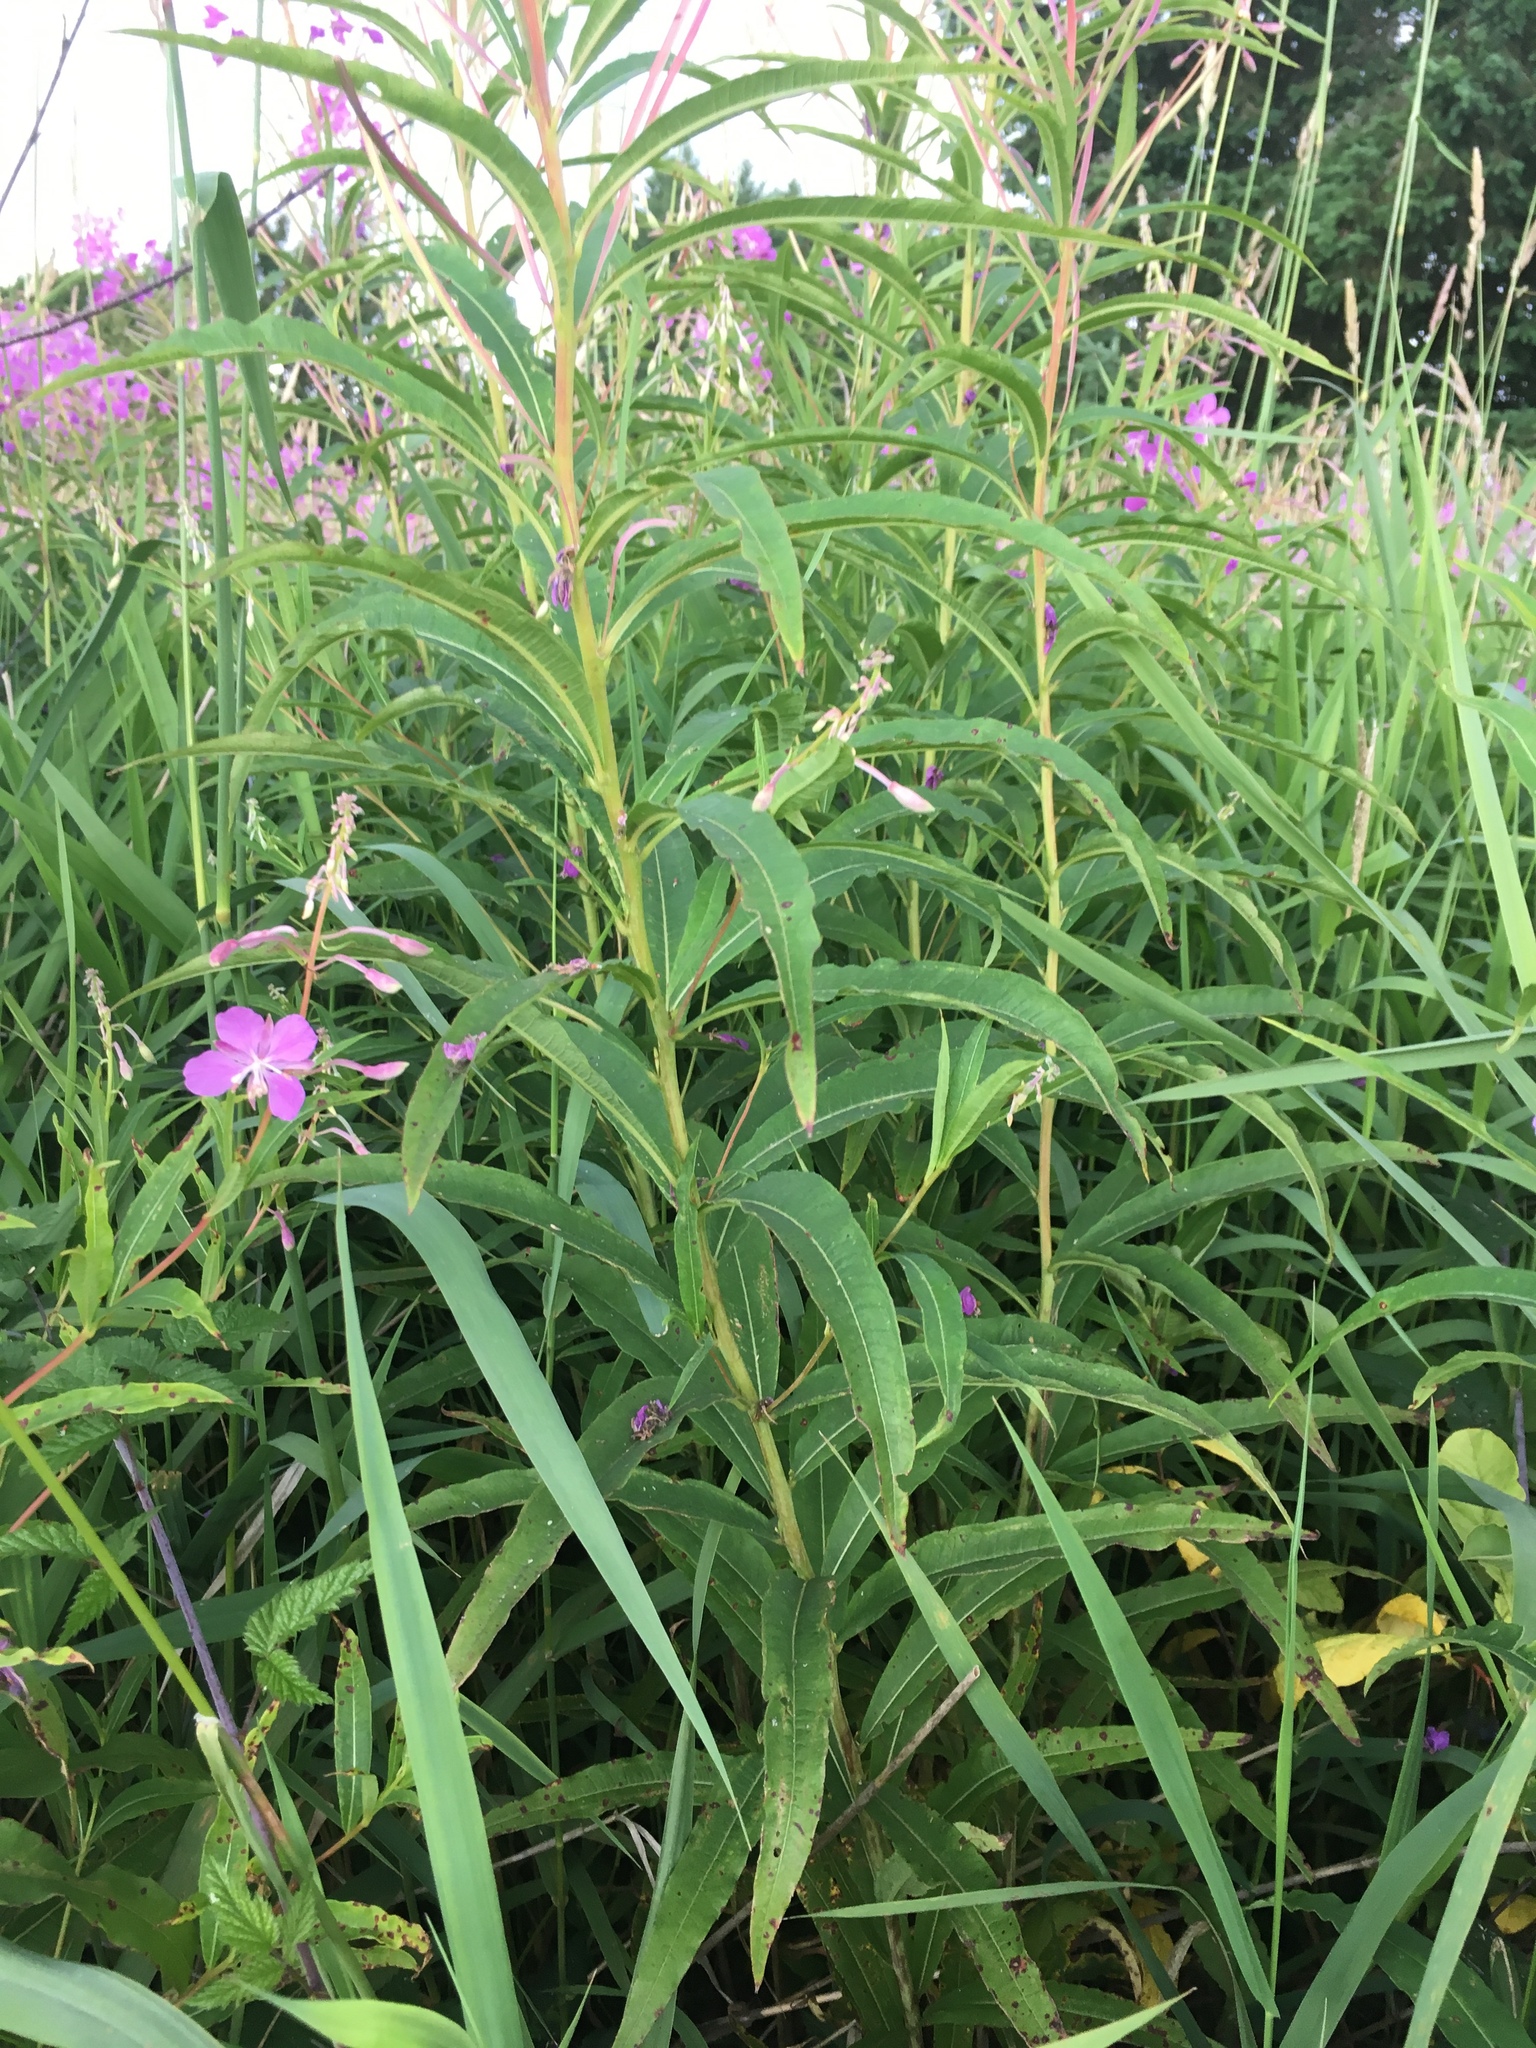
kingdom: Plantae
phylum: Tracheophyta
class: Magnoliopsida
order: Myrtales
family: Onagraceae
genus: Chamaenerion
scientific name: Chamaenerion angustifolium
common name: Fireweed
